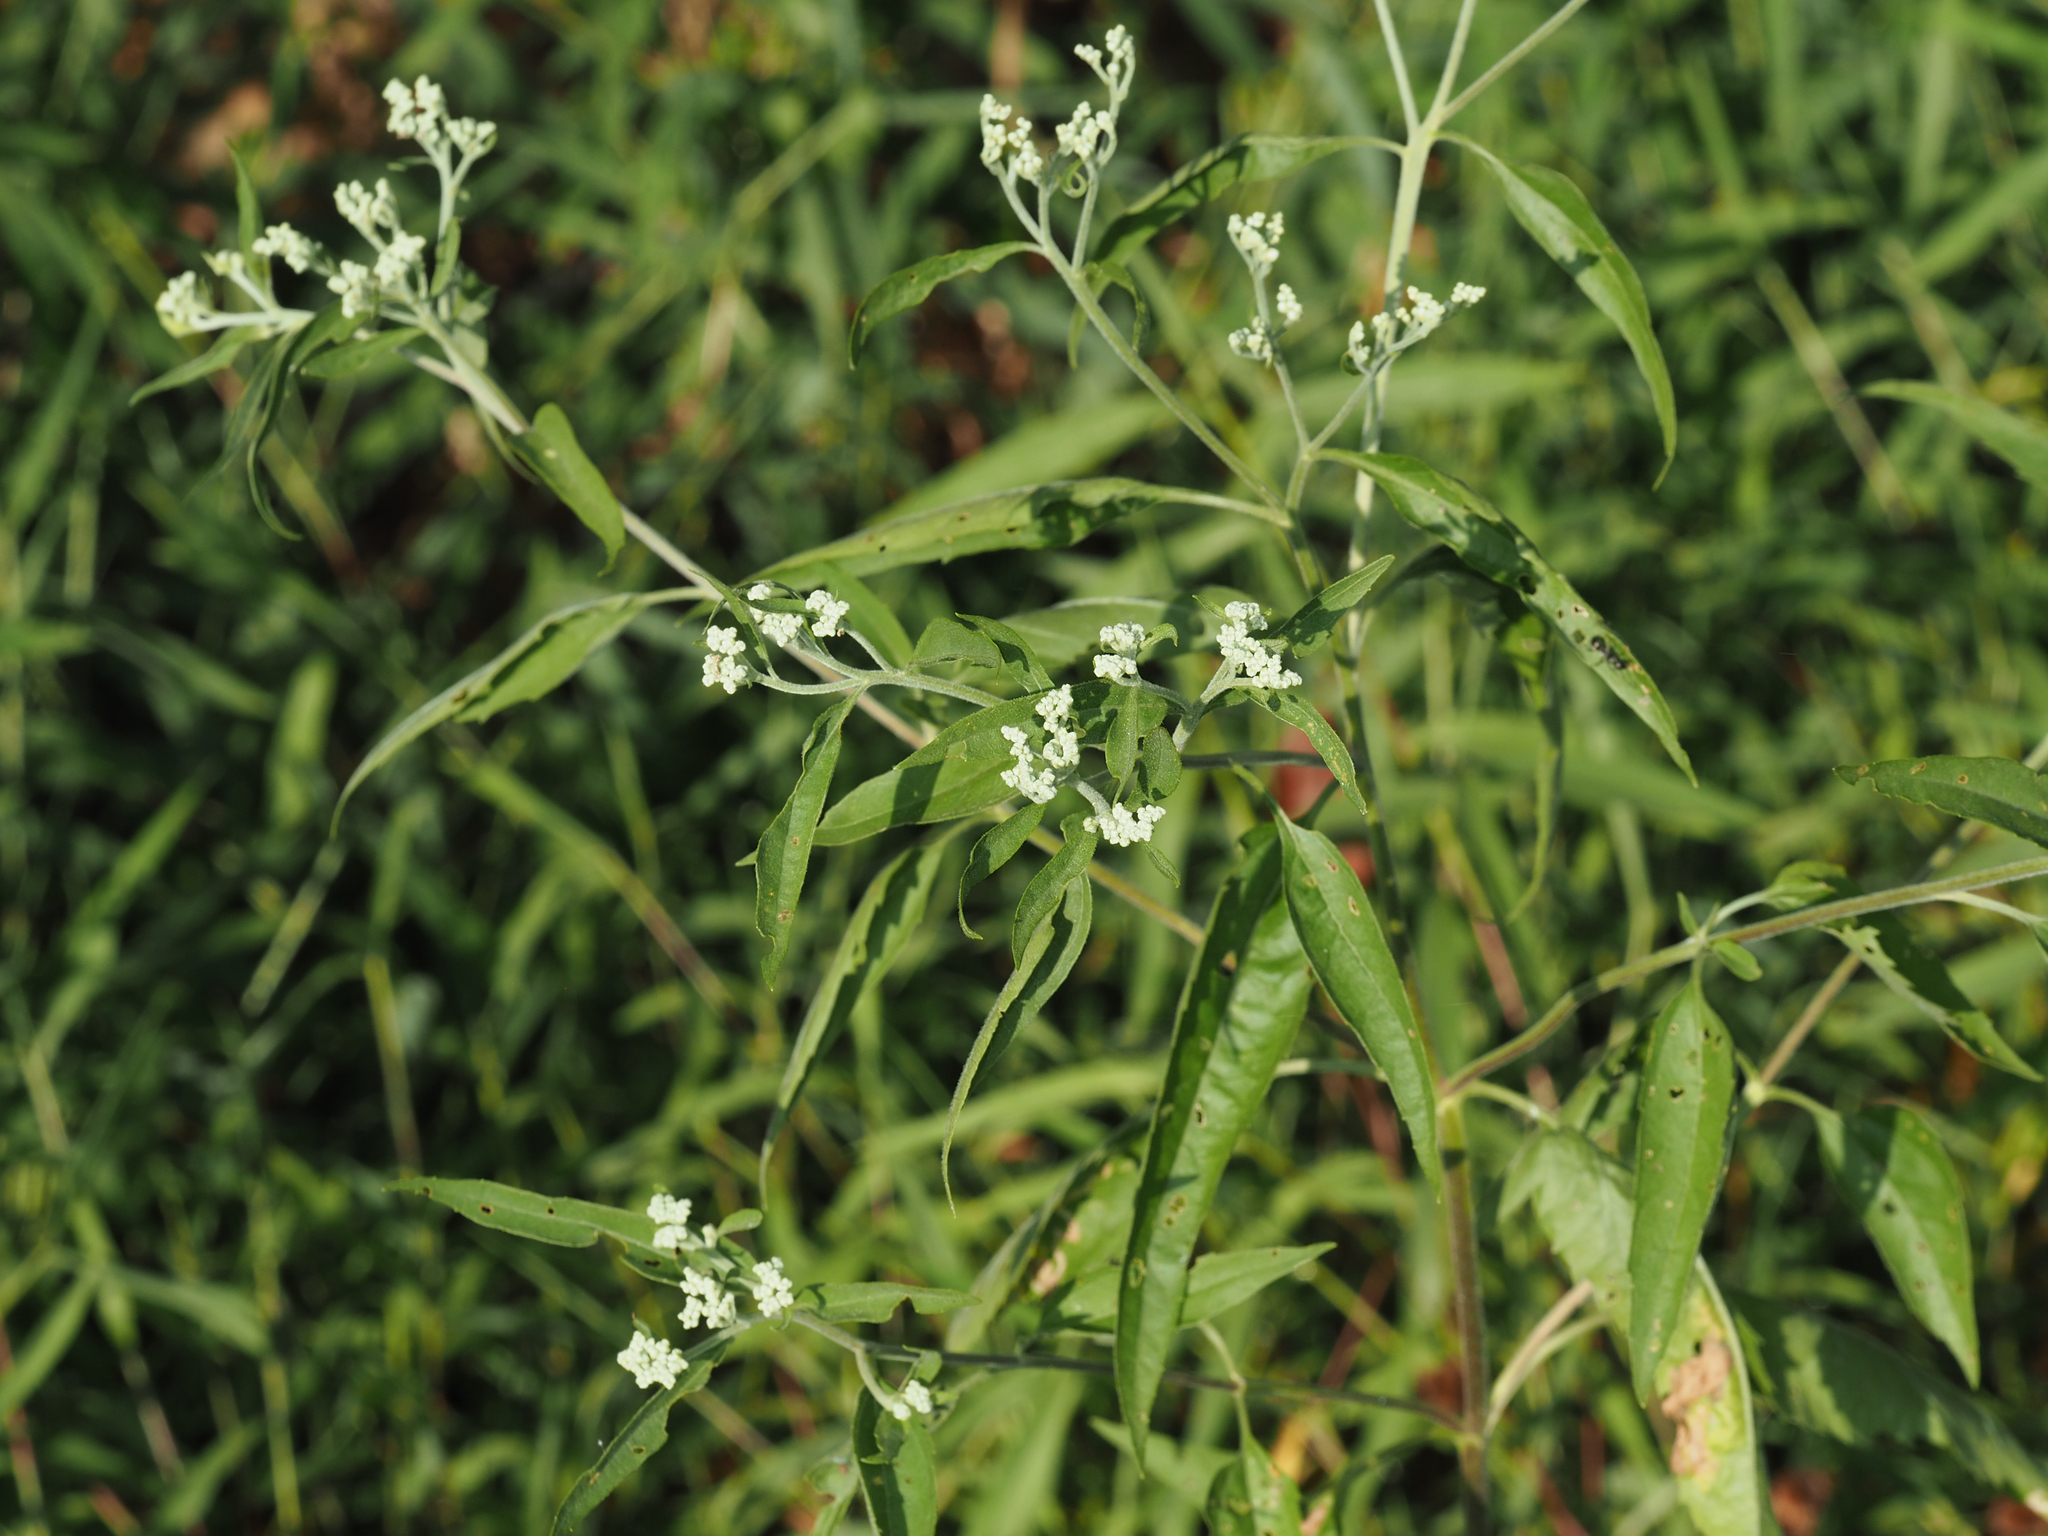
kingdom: Plantae
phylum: Tracheophyta
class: Magnoliopsida
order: Asterales
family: Asteraceae
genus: Eupatorium
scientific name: Eupatorium serotinum
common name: Late boneset
